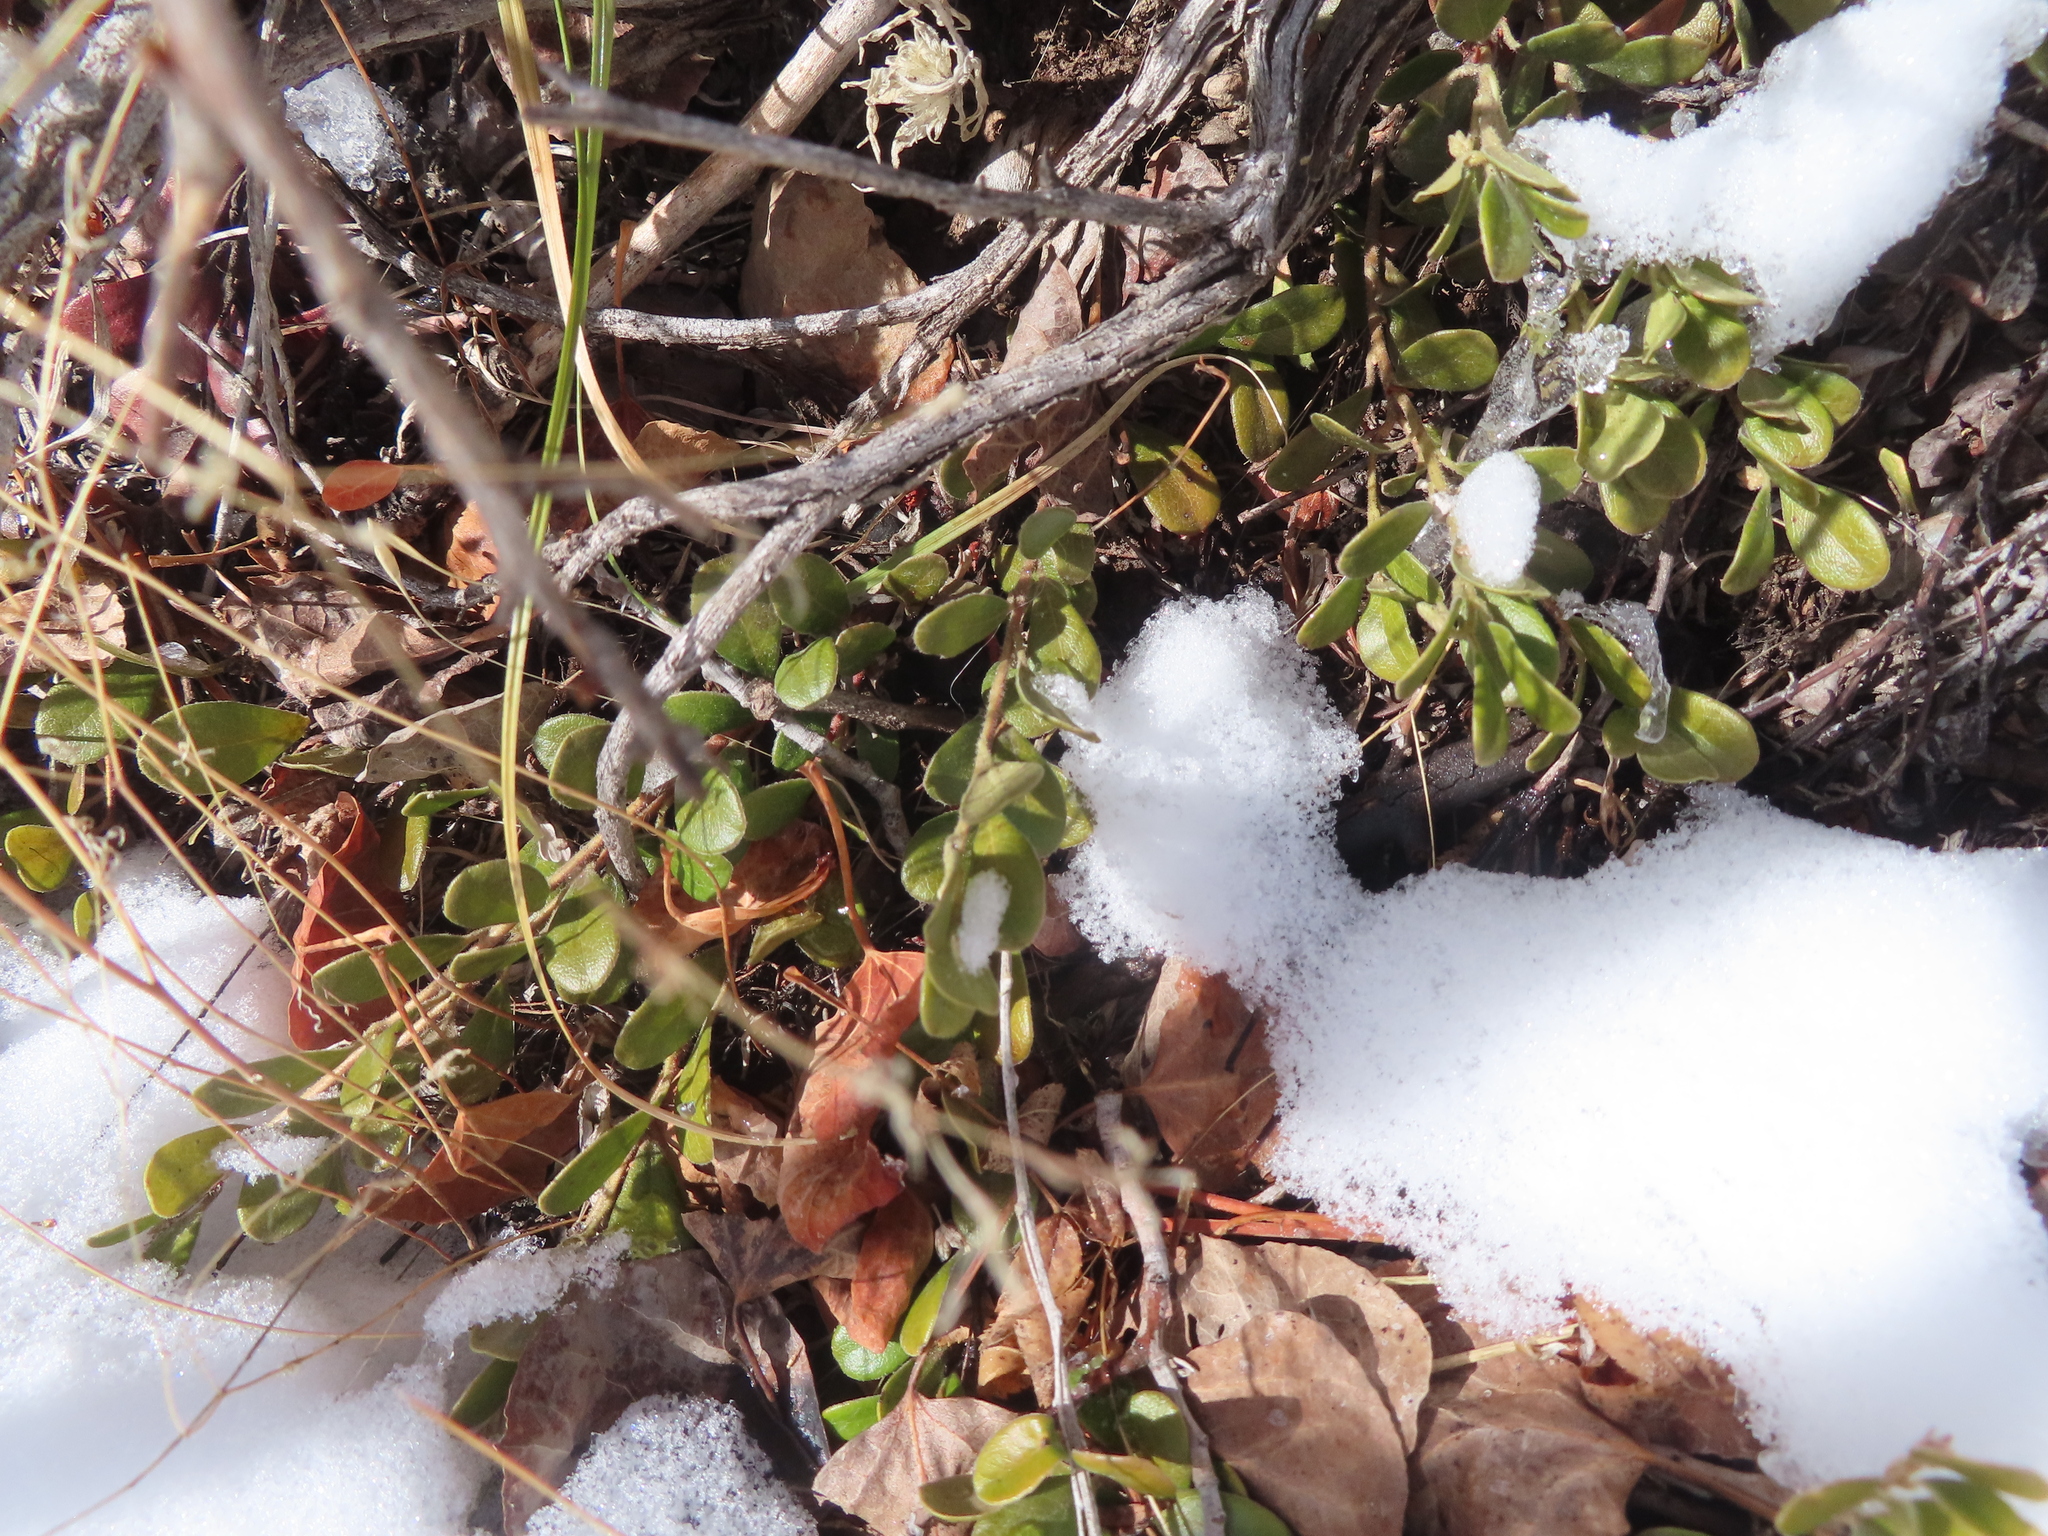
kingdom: Plantae
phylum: Tracheophyta
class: Magnoliopsida
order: Ericales
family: Ericaceae
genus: Arctostaphylos
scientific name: Arctostaphylos uva-ursi
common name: Bearberry
